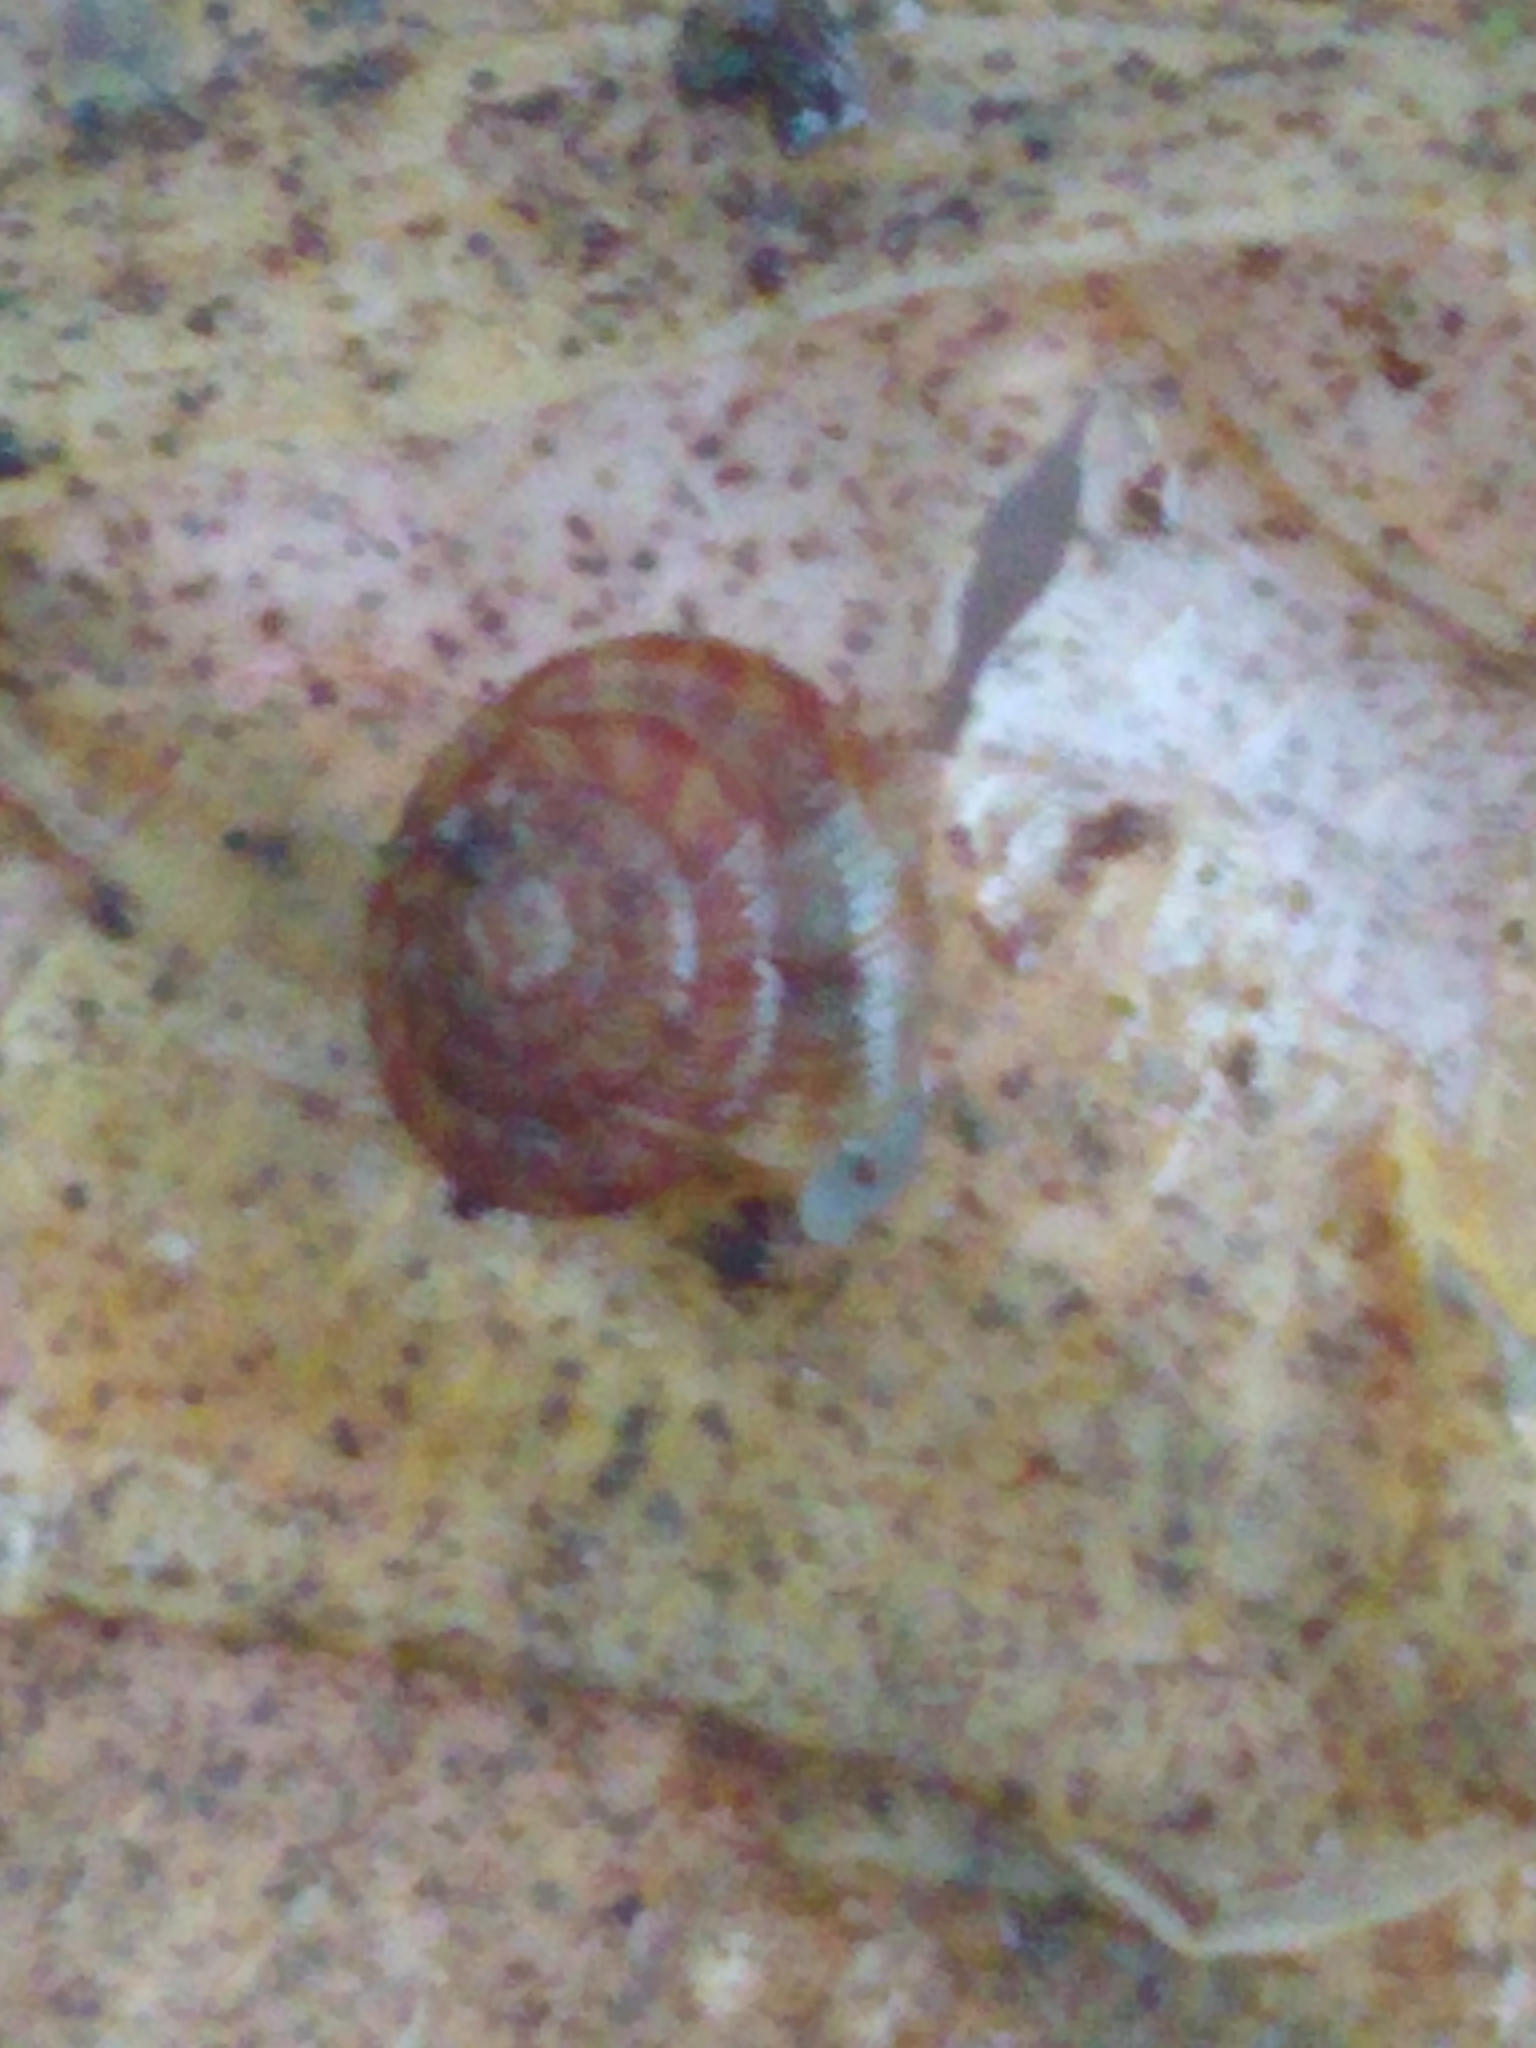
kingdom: Animalia
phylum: Mollusca
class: Gastropoda
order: Stylommatophora
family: Discidae
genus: Discus
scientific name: Discus rotundatus
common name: Rounded snail
